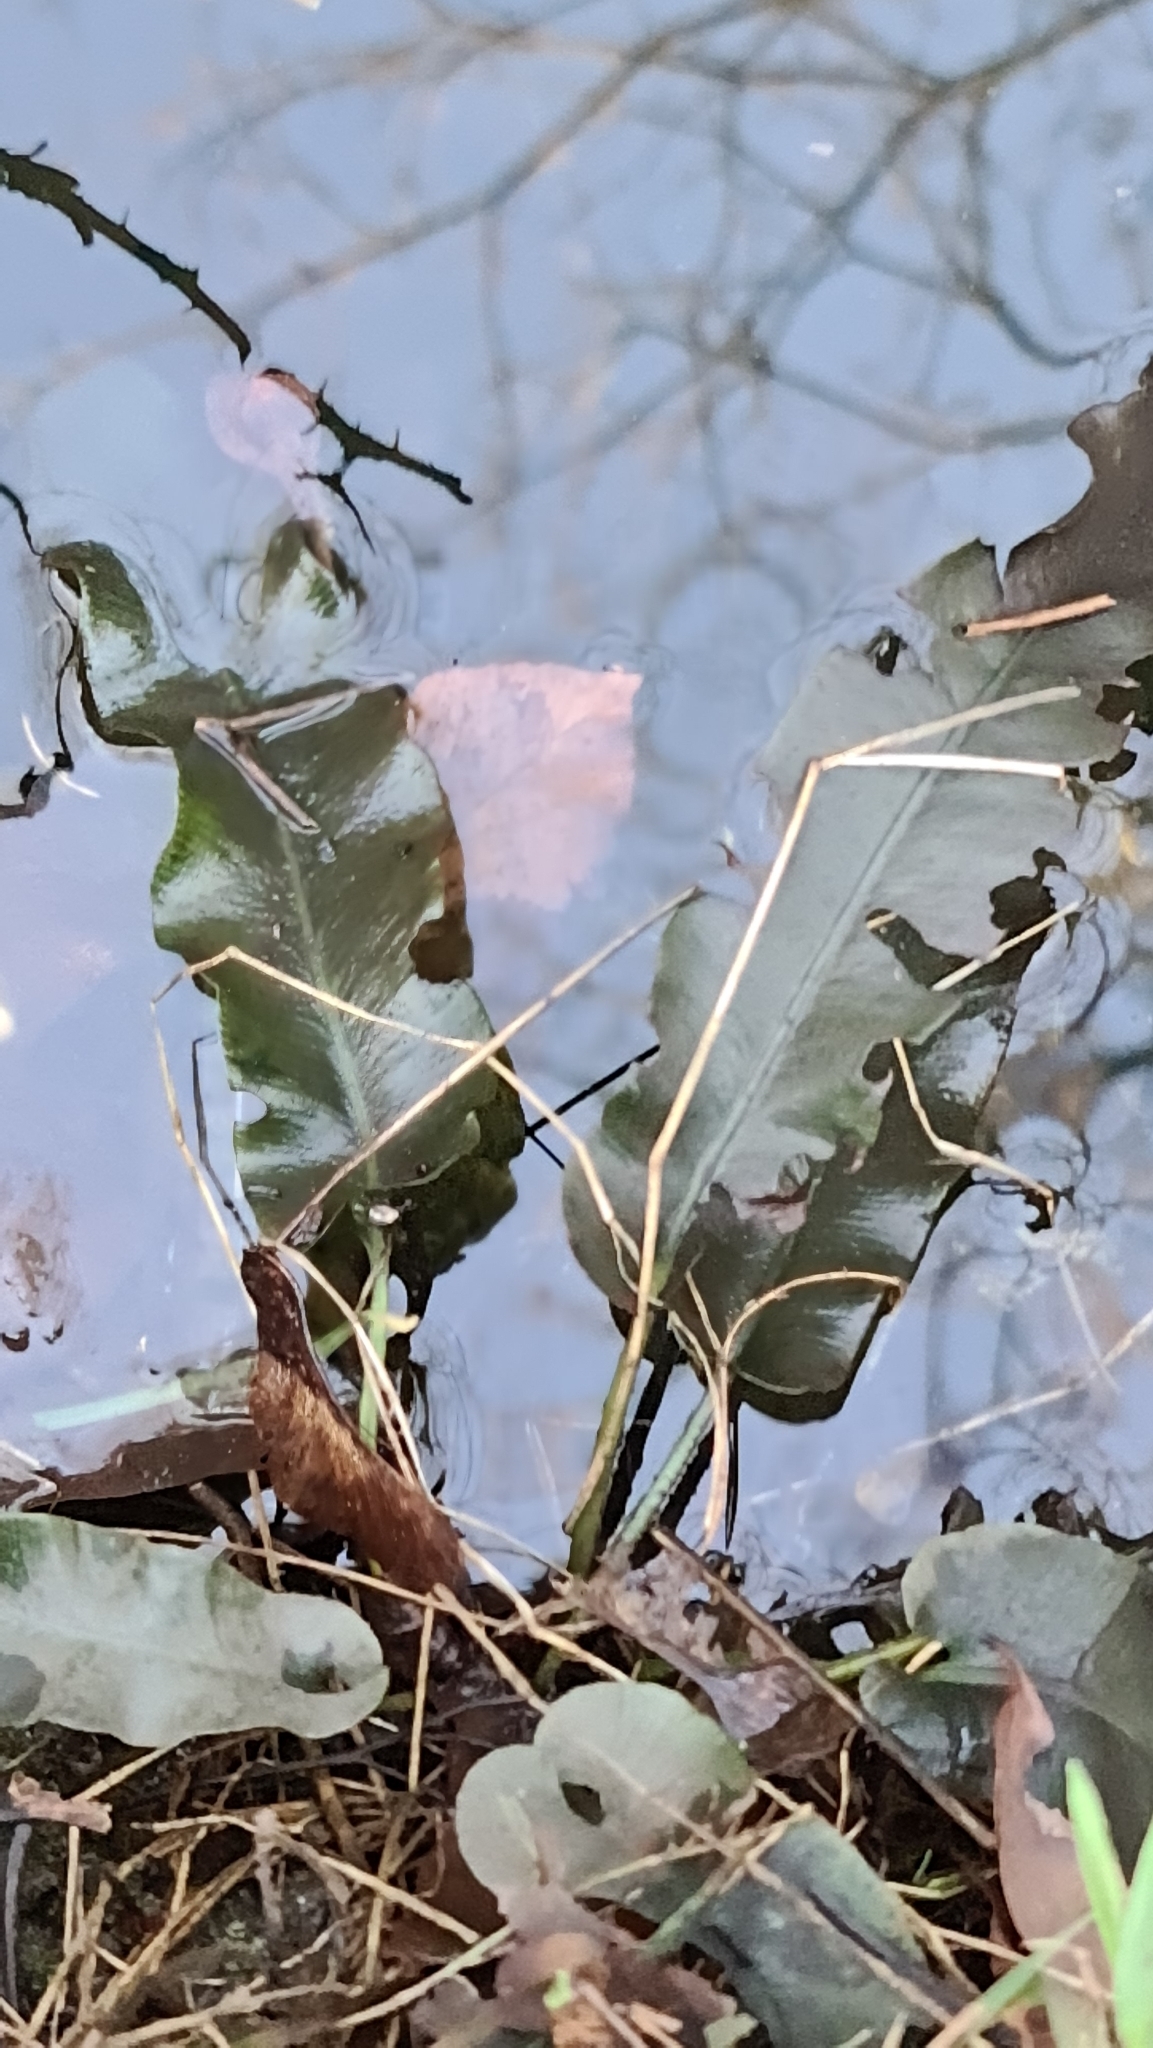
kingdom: Plantae
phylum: Tracheophyta
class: Polypodiopsida
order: Polypodiales
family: Aspleniaceae
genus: Asplenium
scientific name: Asplenium scolopendrium
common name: Hart's-tongue fern
